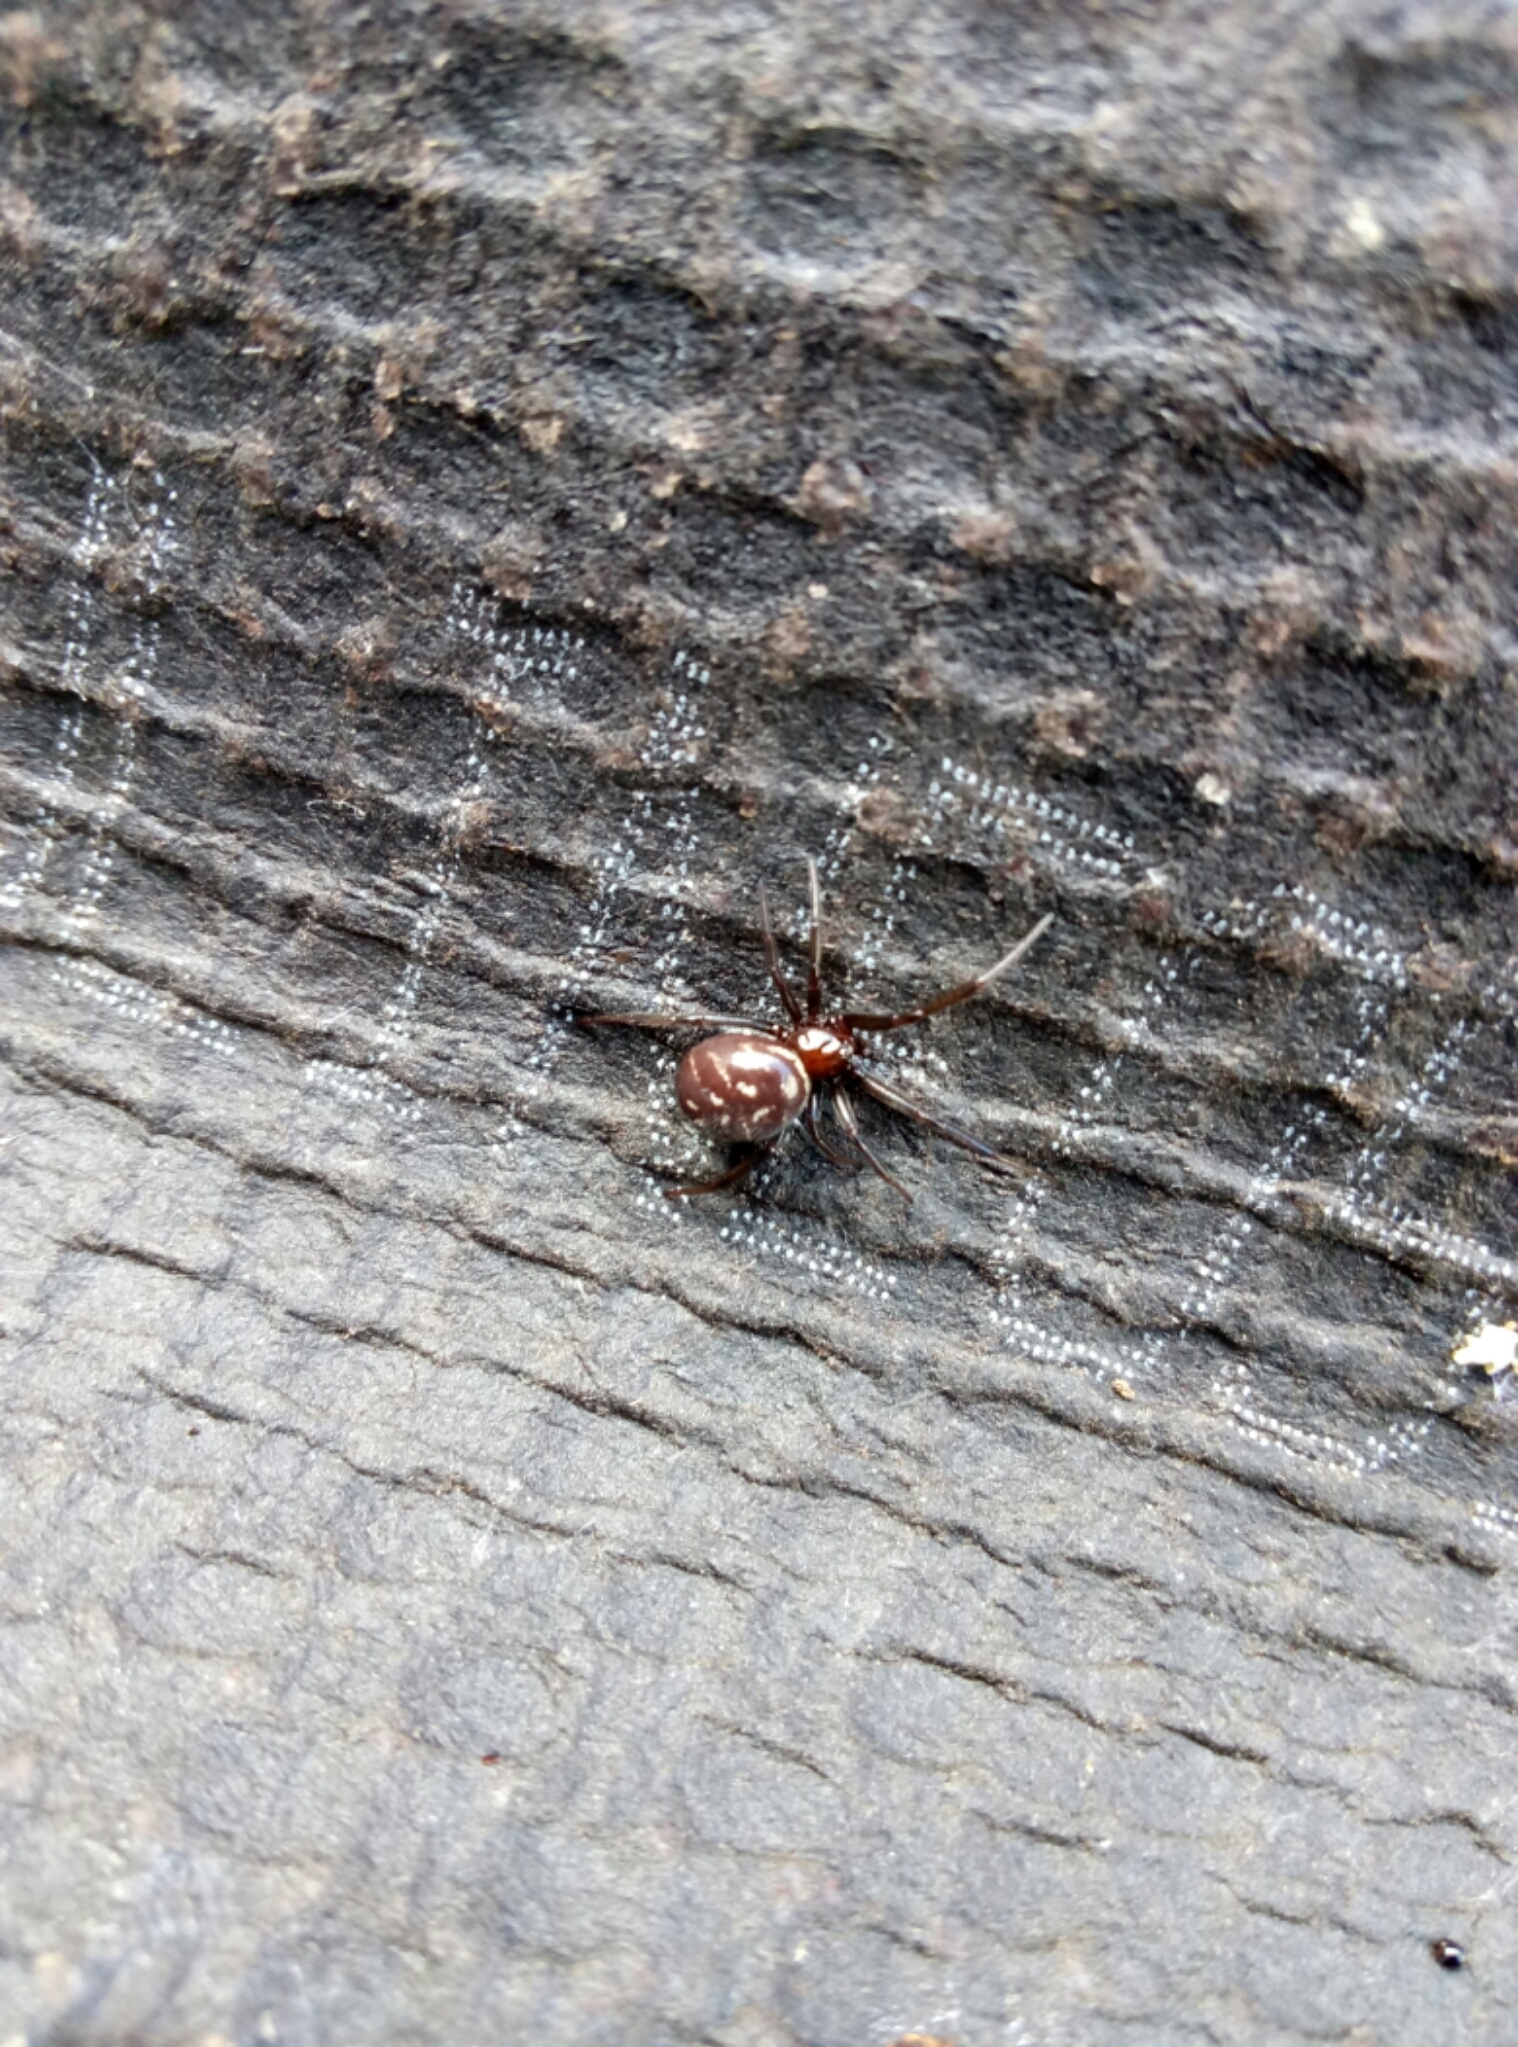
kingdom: Animalia
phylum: Arthropoda
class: Arachnida
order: Araneae
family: Theridiidae
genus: Steatoda
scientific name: Steatoda capensis
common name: Cobweb weaver
